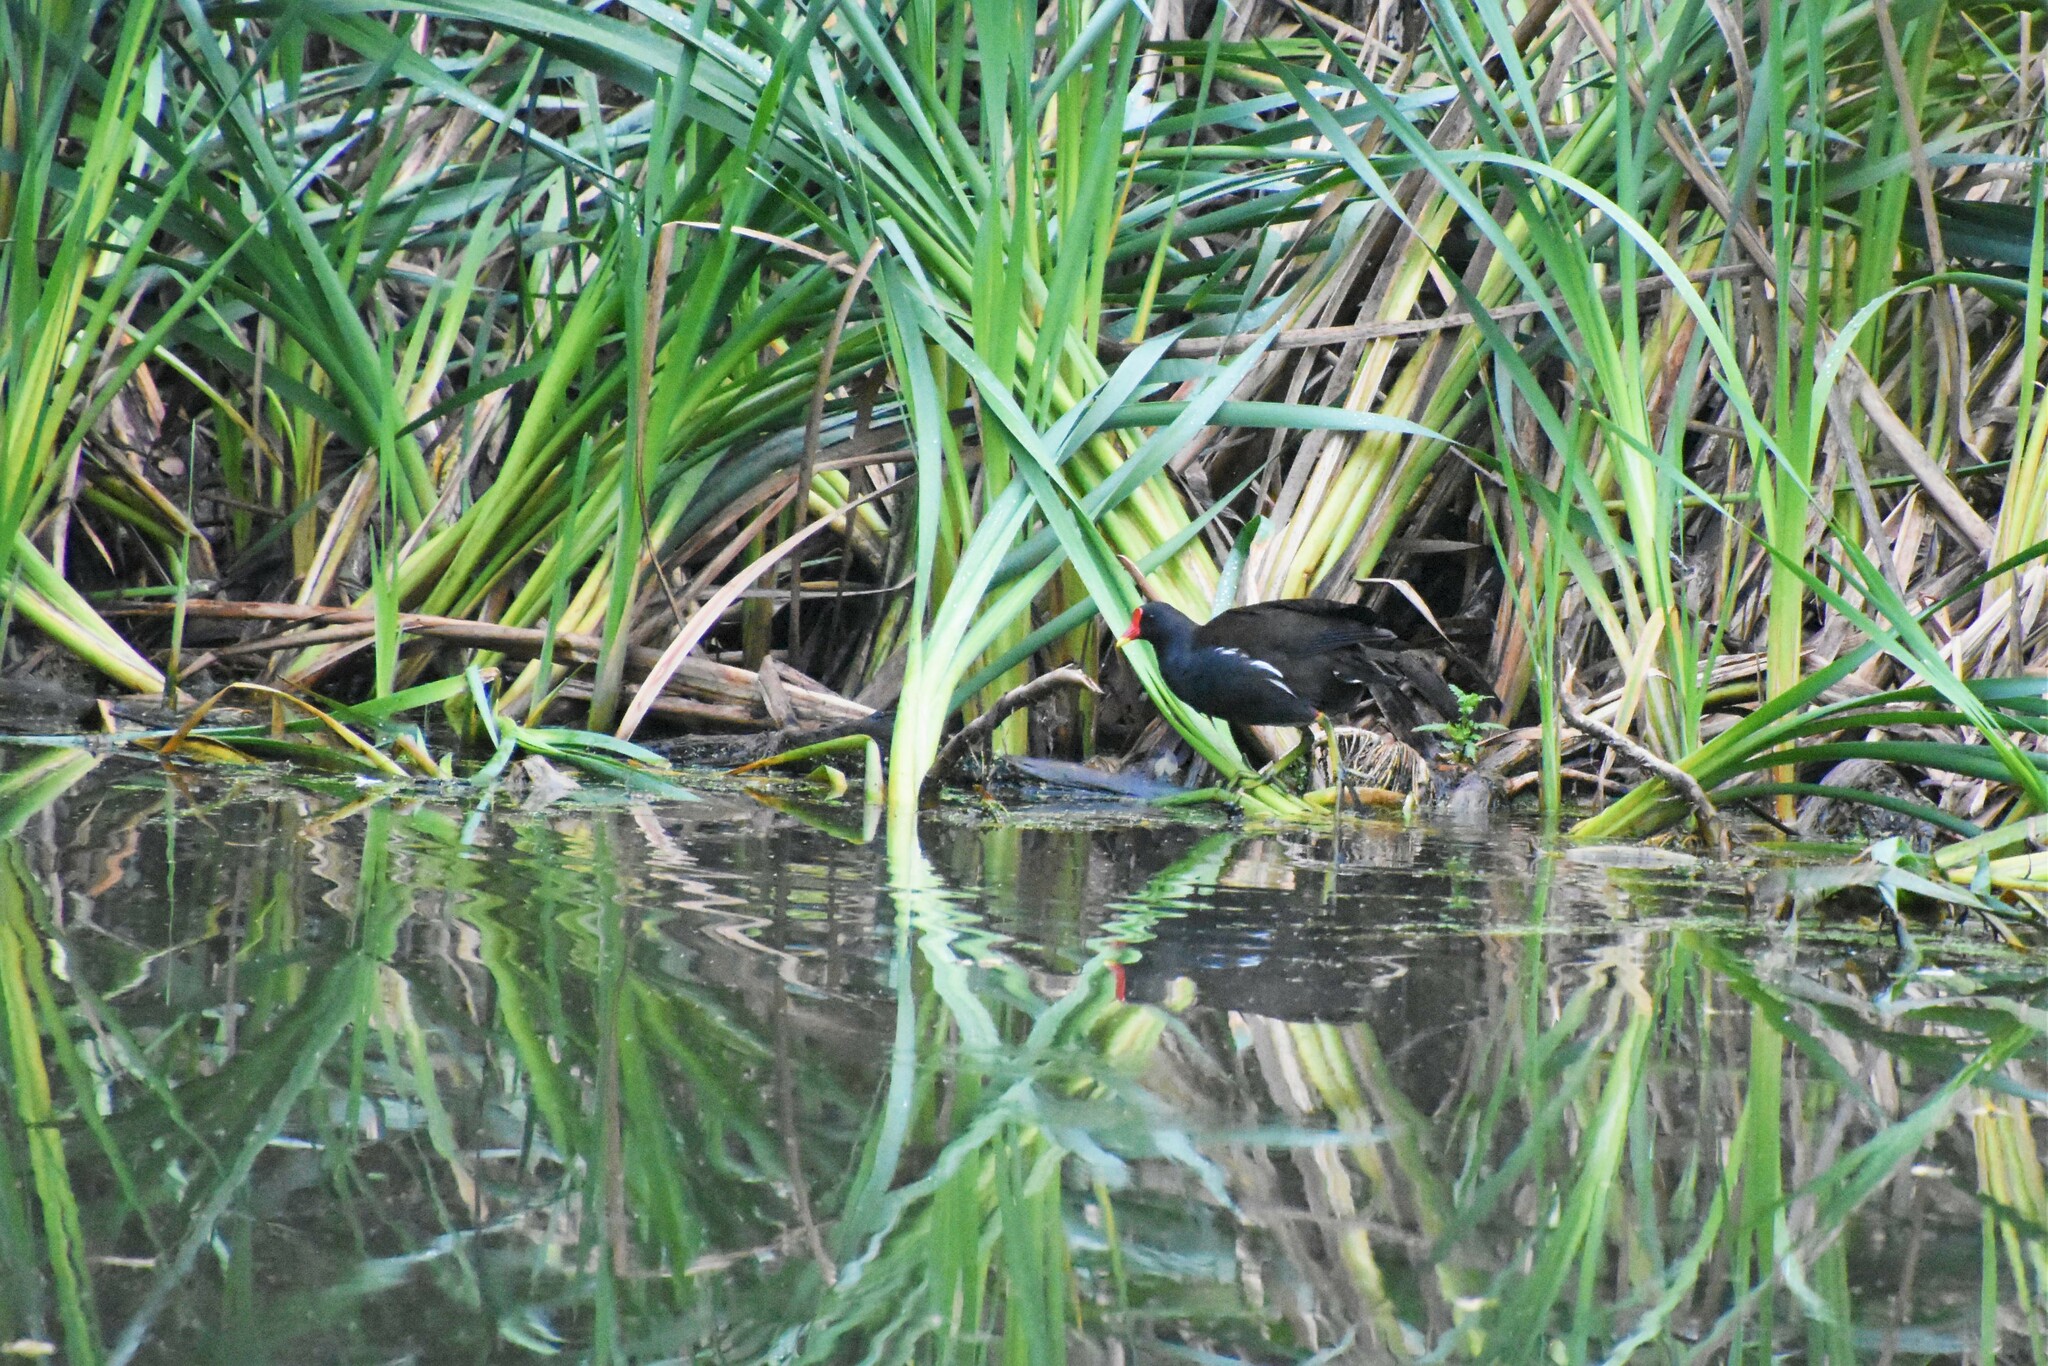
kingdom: Animalia
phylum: Chordata
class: Aves
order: Gruiformes
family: Rallidae
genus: Gallinula
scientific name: Gallinula chloropus
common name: Common moorhen
